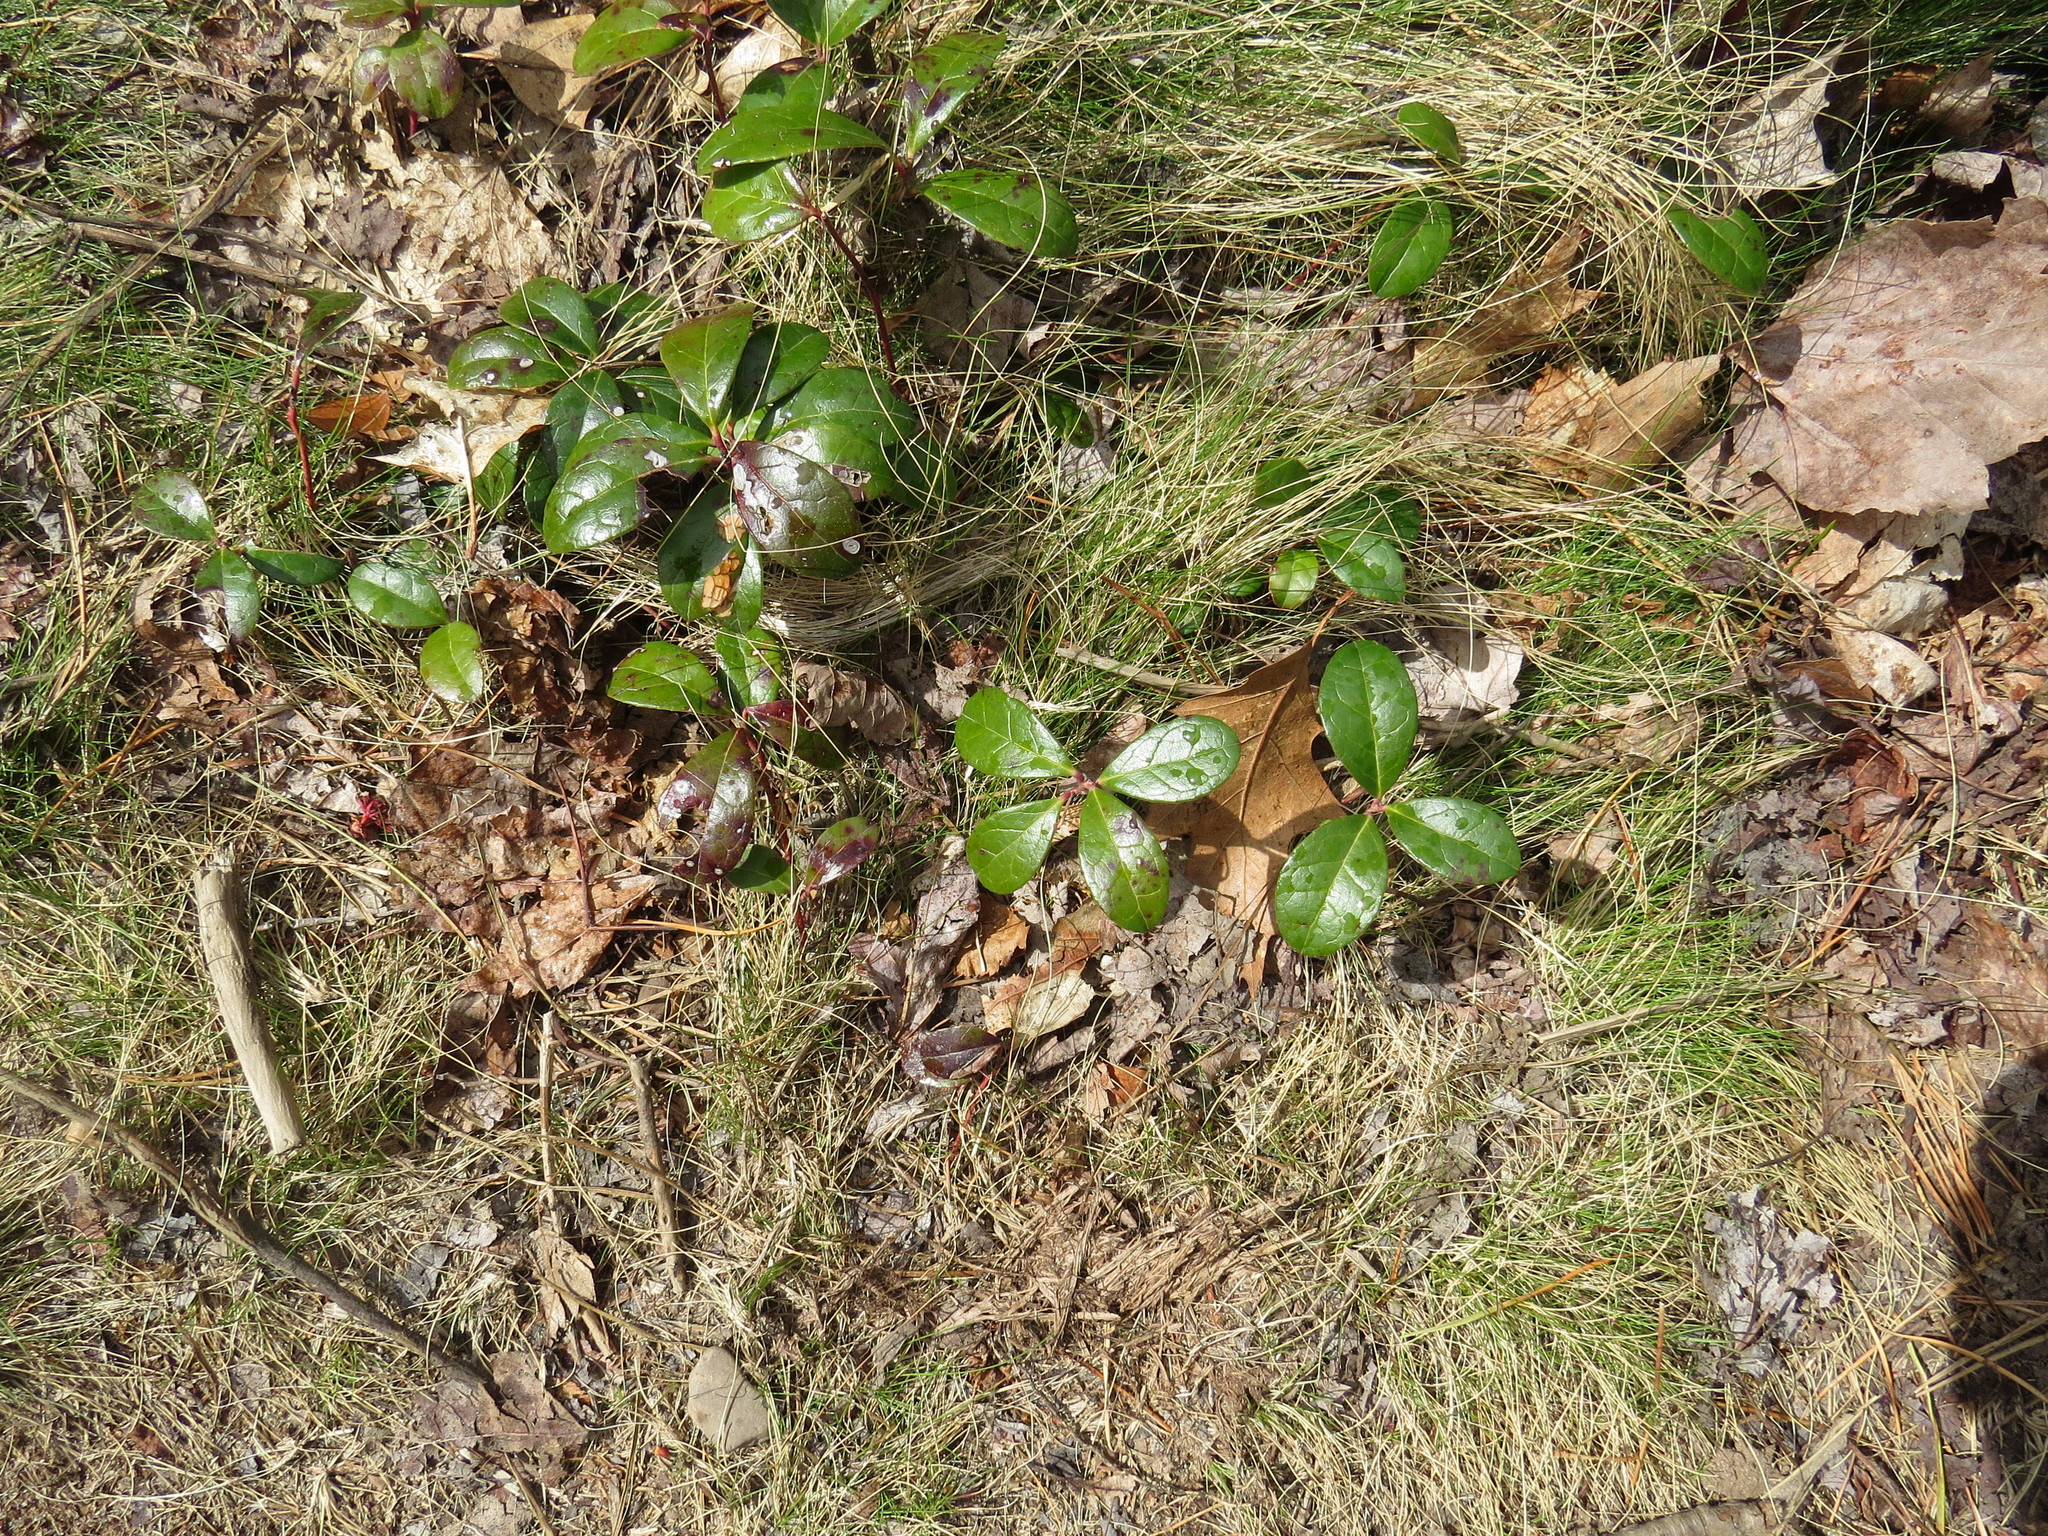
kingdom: Plantae
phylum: Tracheophyta
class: Magnoliopsida
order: Ericales
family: Ericaceae
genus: Gaultheria
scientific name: Gaultheria procumbens
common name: Checkerberry
